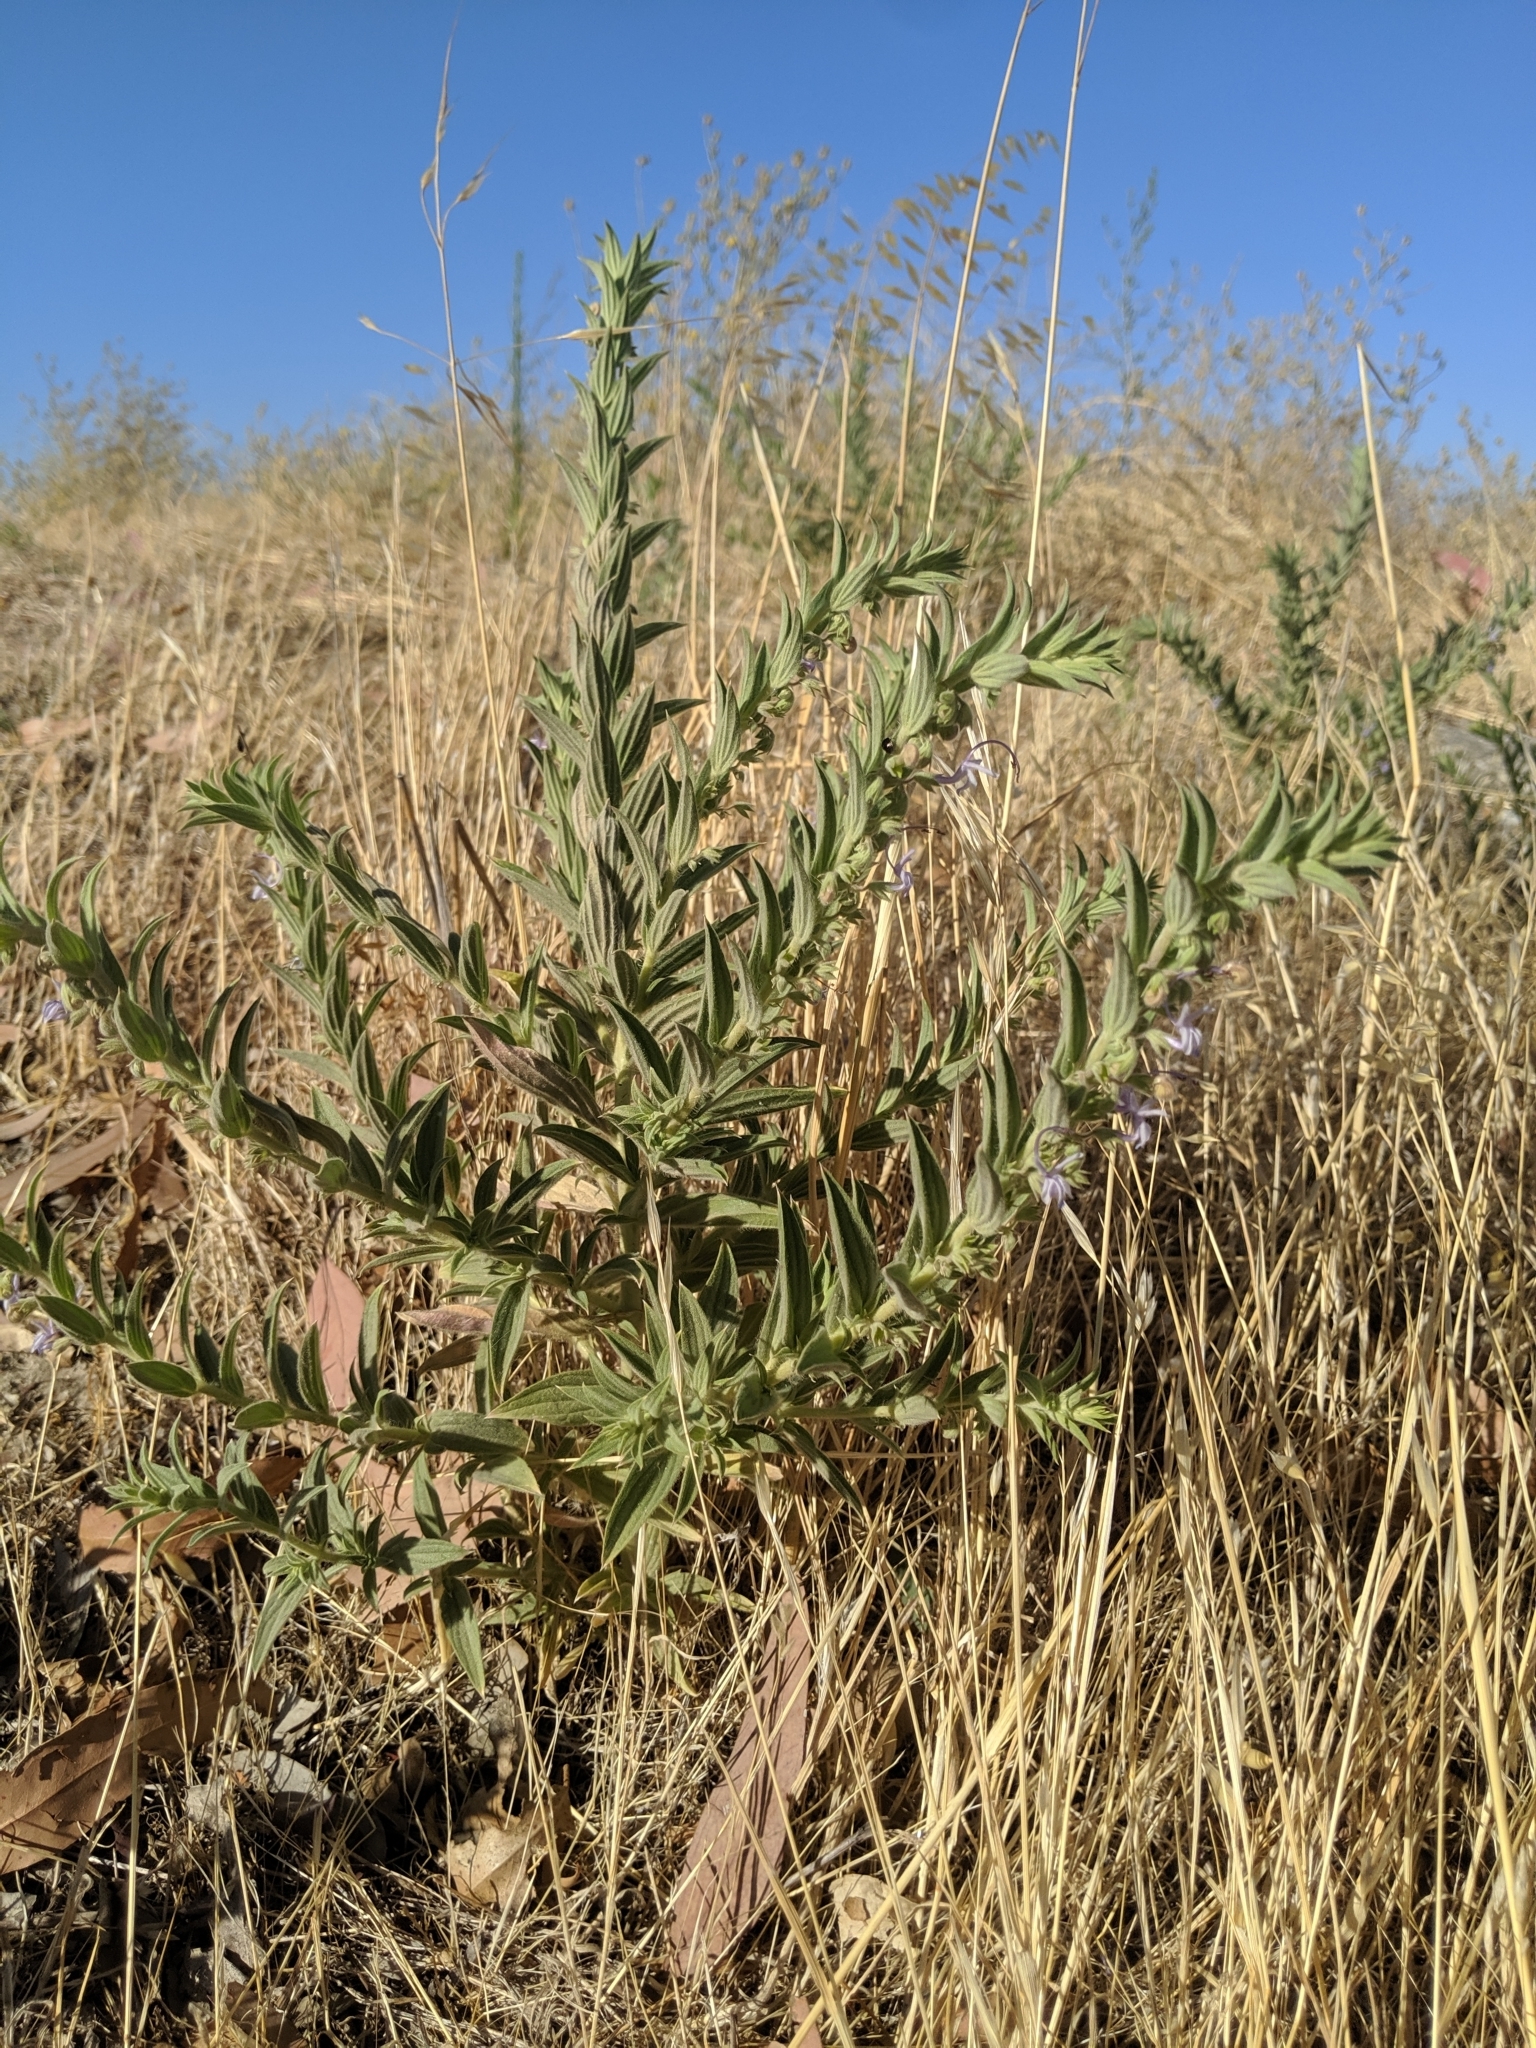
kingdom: Plantae
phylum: Tracheophyta
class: Magnoliopsida
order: Lamiales
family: Lamiaceae
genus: Trichostema
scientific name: Trichostema lanceolatum
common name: Vinegar-weed
